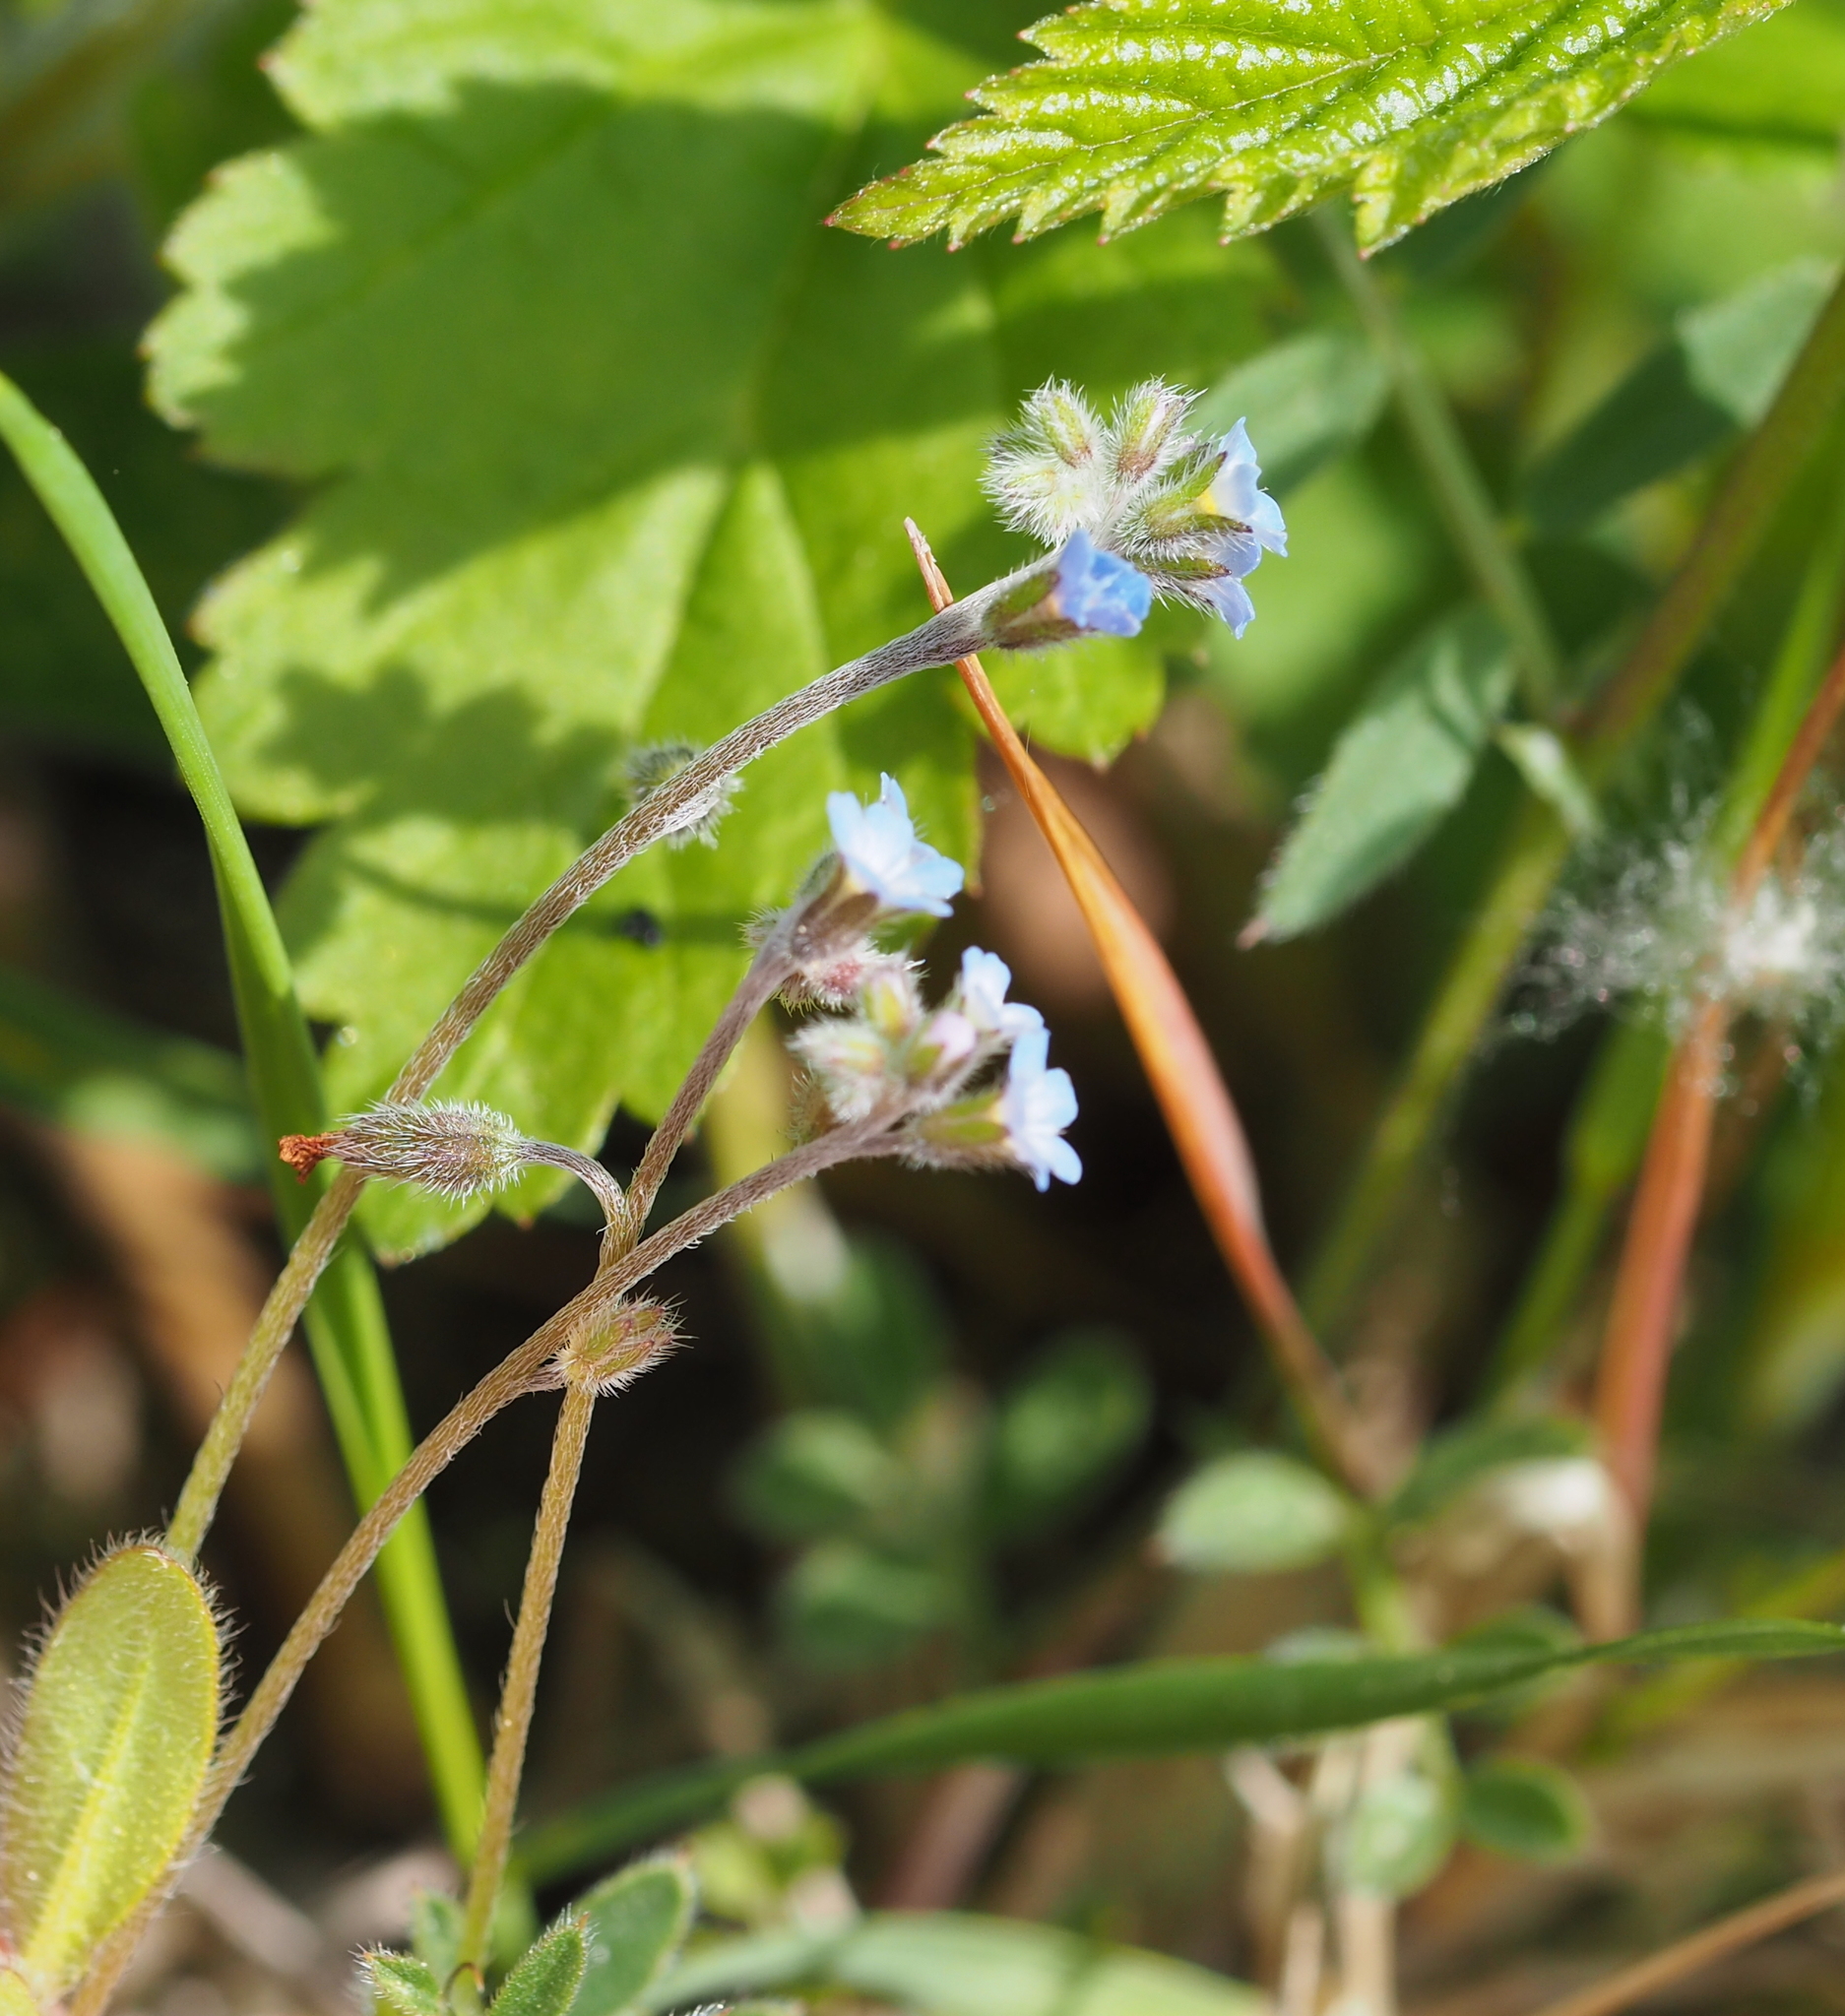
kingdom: Plantae
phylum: Tracheophyta
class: Magnoliopsida
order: Boraginales
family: Boraginaceae
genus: Myosotis
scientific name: Myosotis ramosissima
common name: Early forget-me-not
